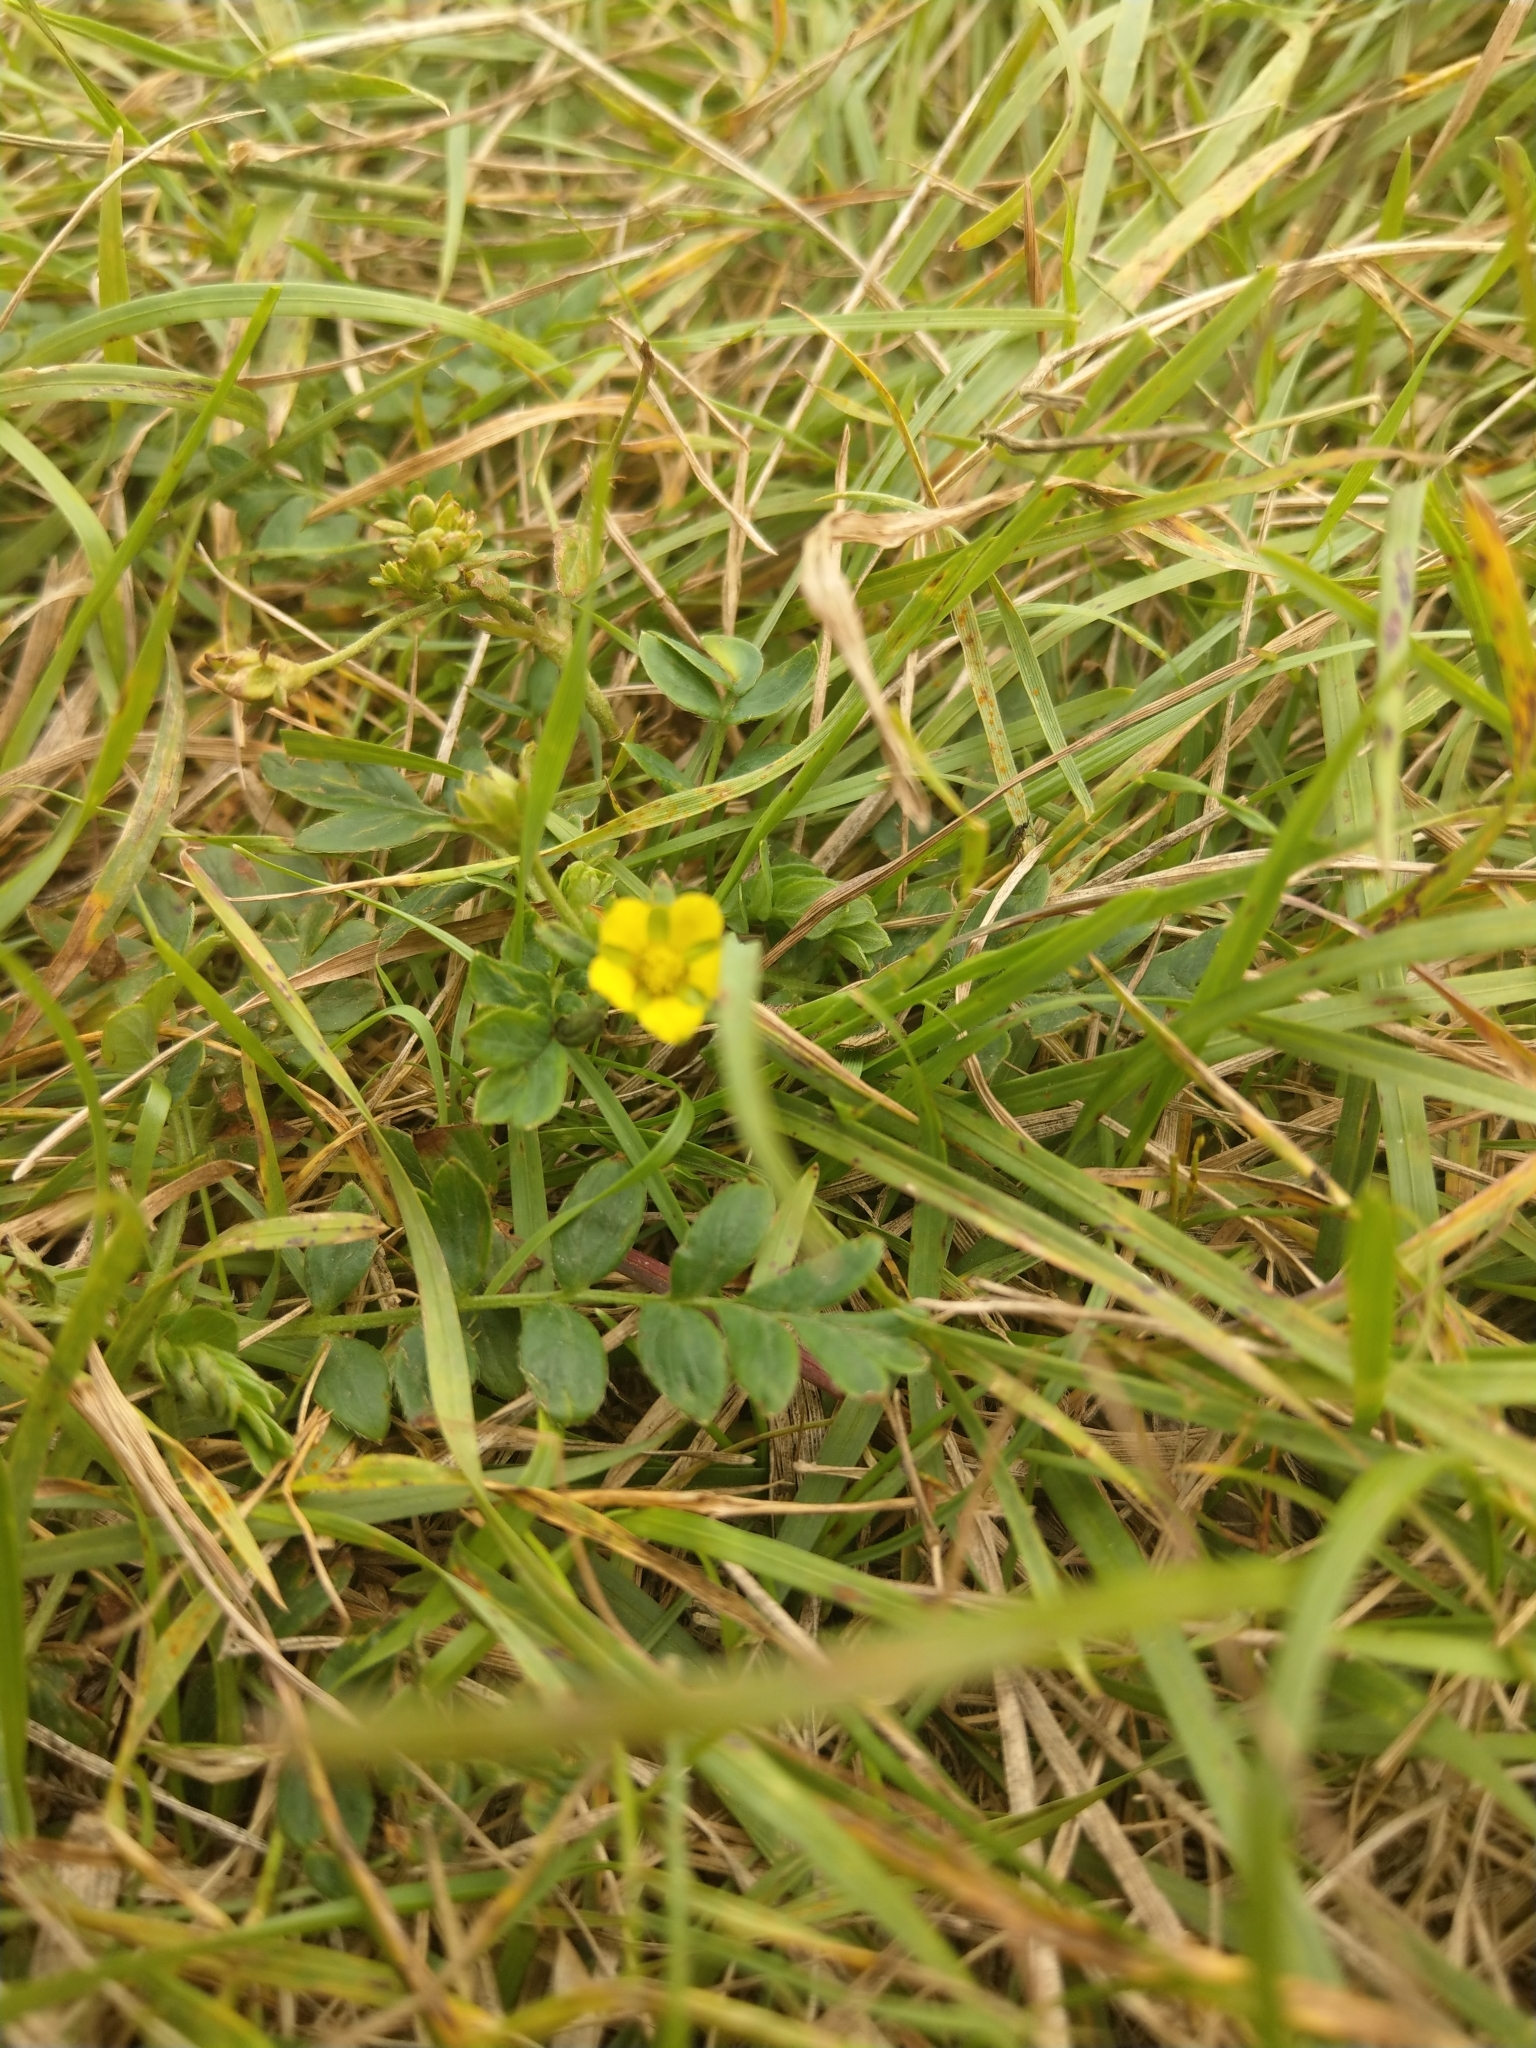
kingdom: Plantae
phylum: Tracheophyta
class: Magnoliopsida
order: Rosales
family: Rosaceae
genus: Sibbaldianthe
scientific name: Sibbaldianthe bifurca
